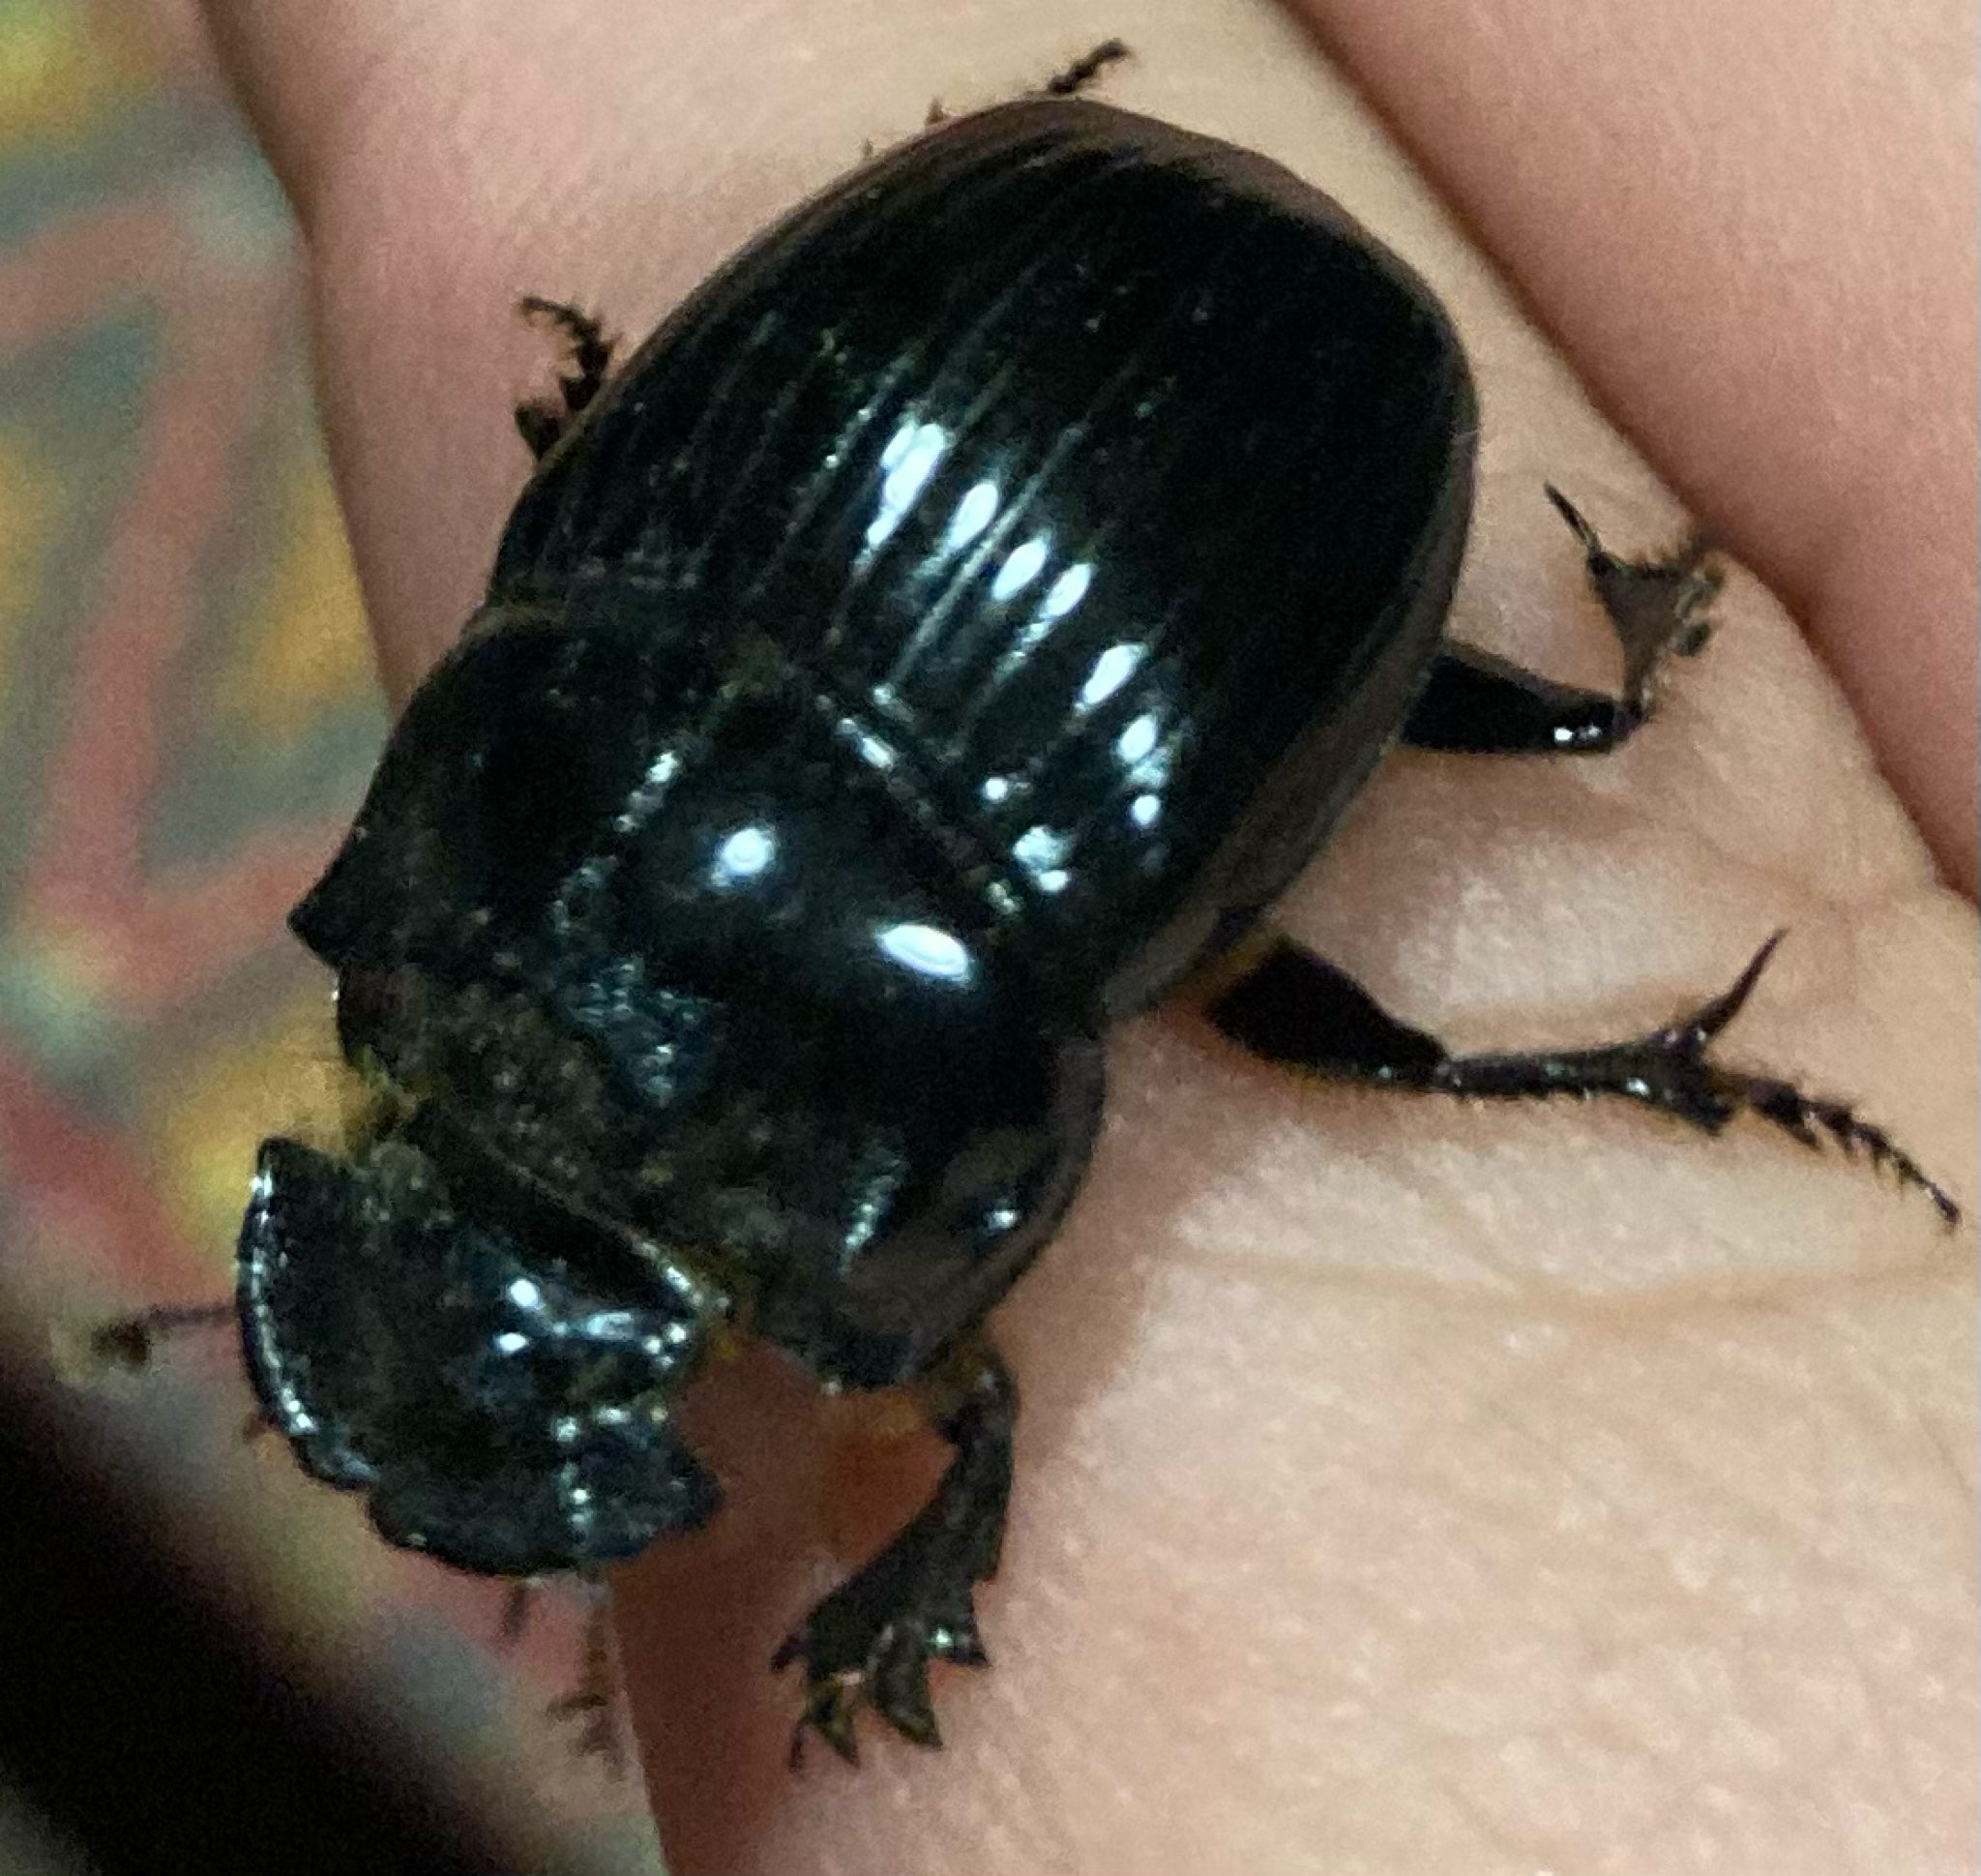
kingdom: Animalia
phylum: Arthropoda
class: Insecta
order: Coleoptera
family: Scarabaeidae
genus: Copris
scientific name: Copris lunaris
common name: Horned dung beetle
